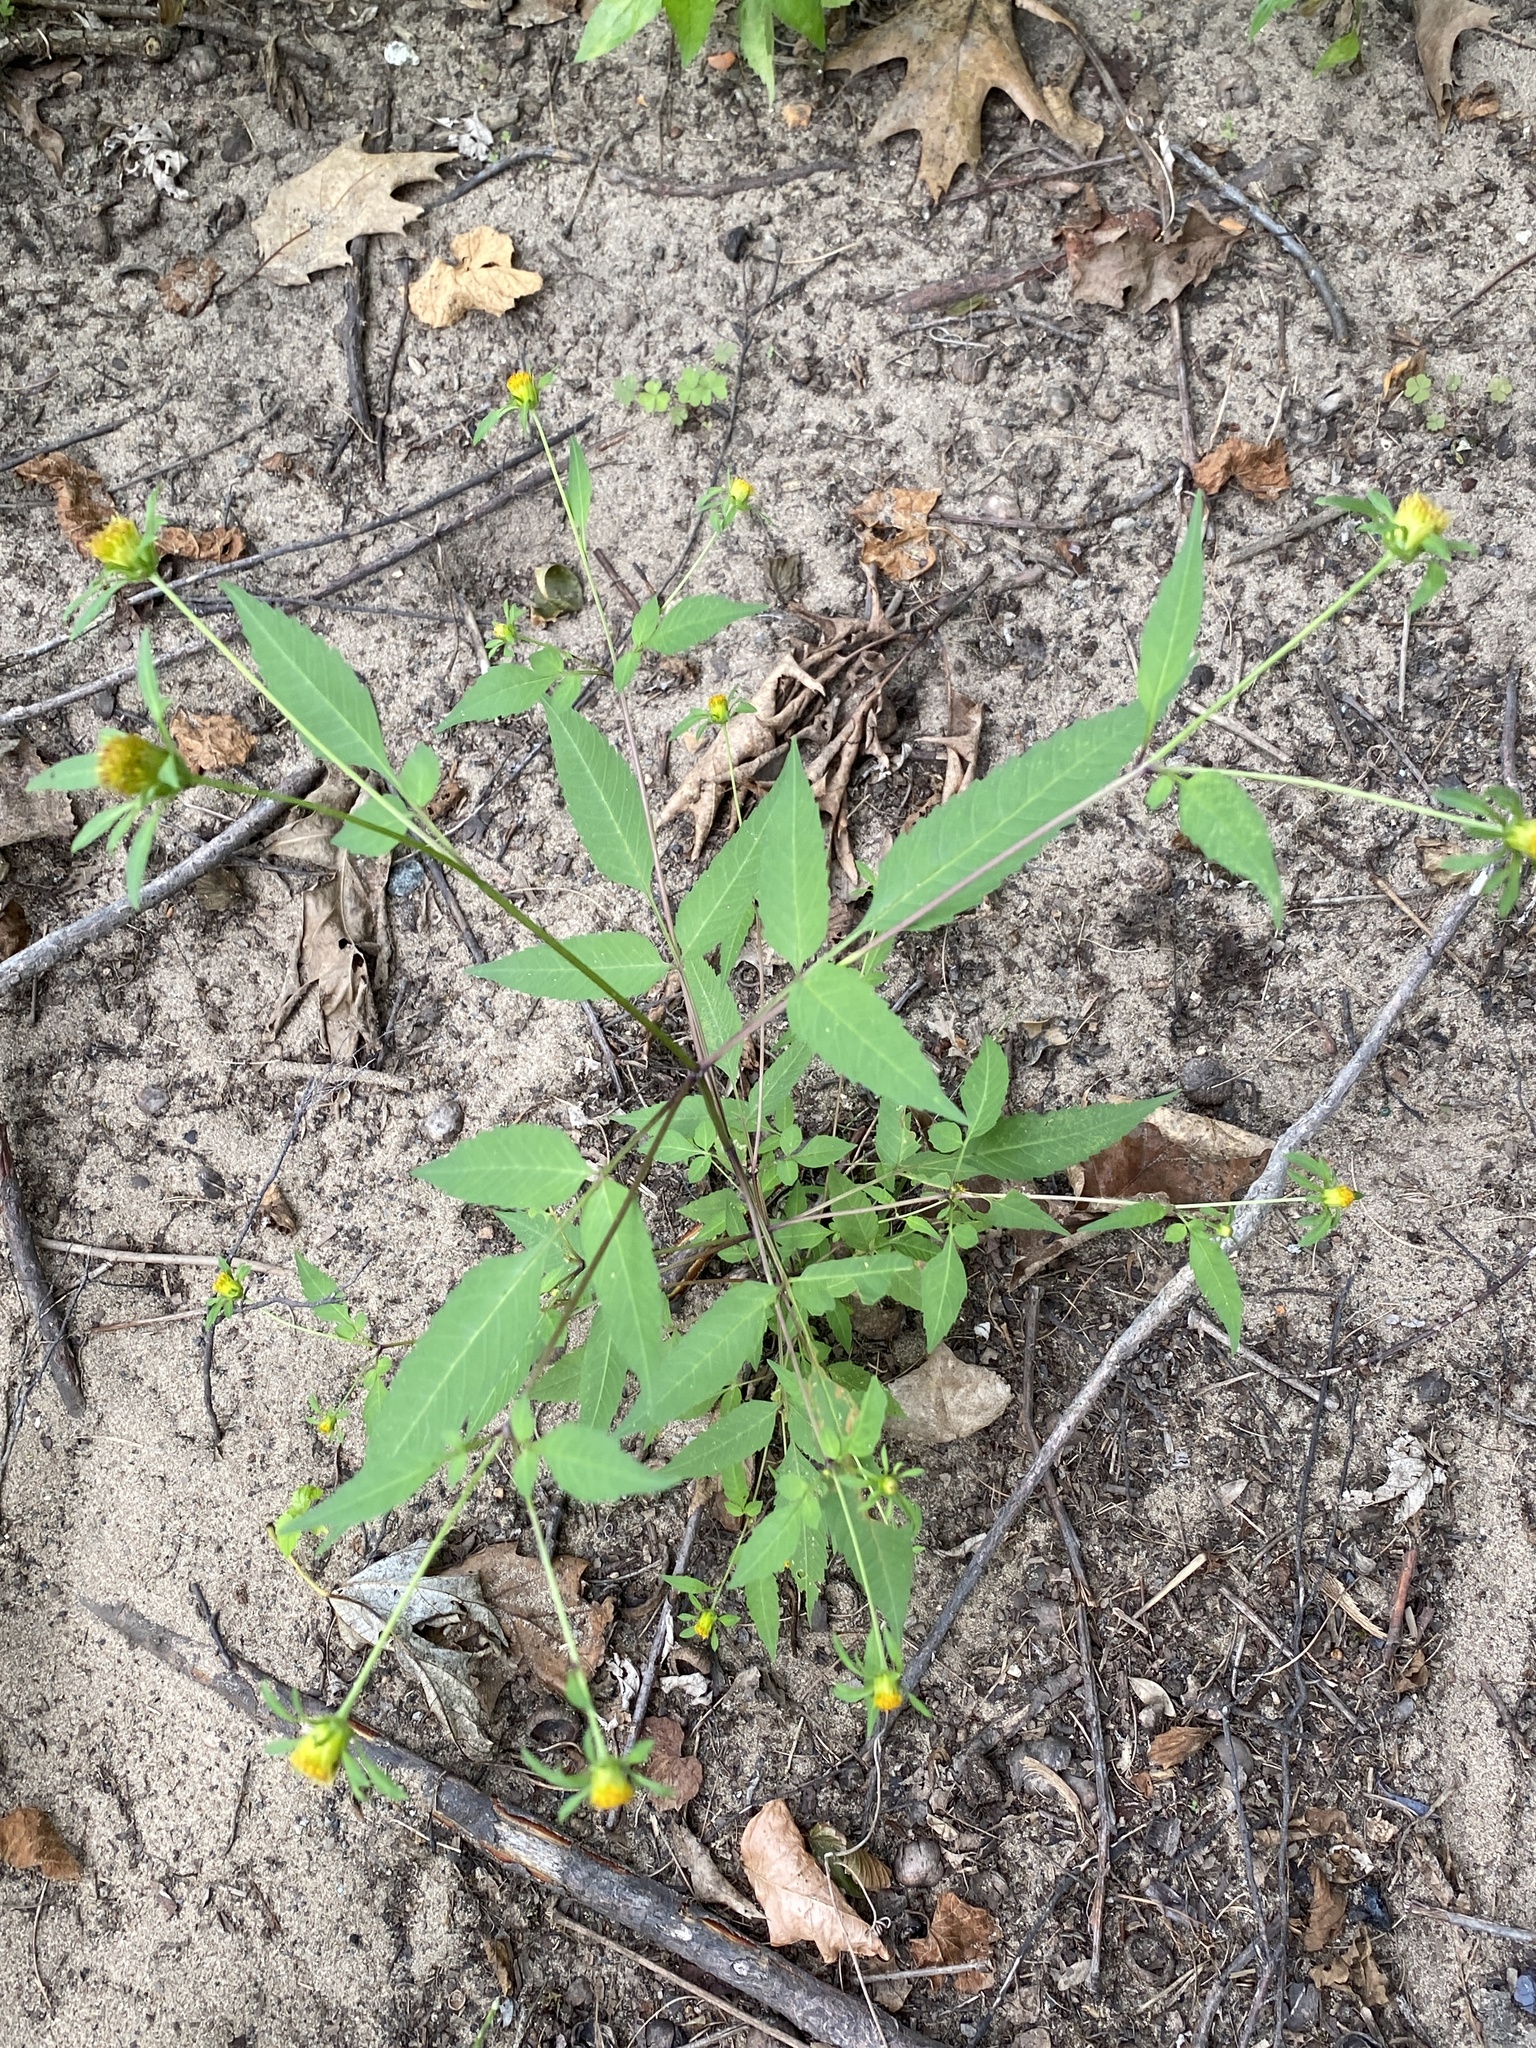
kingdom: Plantae
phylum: Tracheophyta
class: Magnoliopsida
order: Asterales
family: Asteraceae
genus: Bidens
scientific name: Bidens frondosa
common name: Beggarticks
